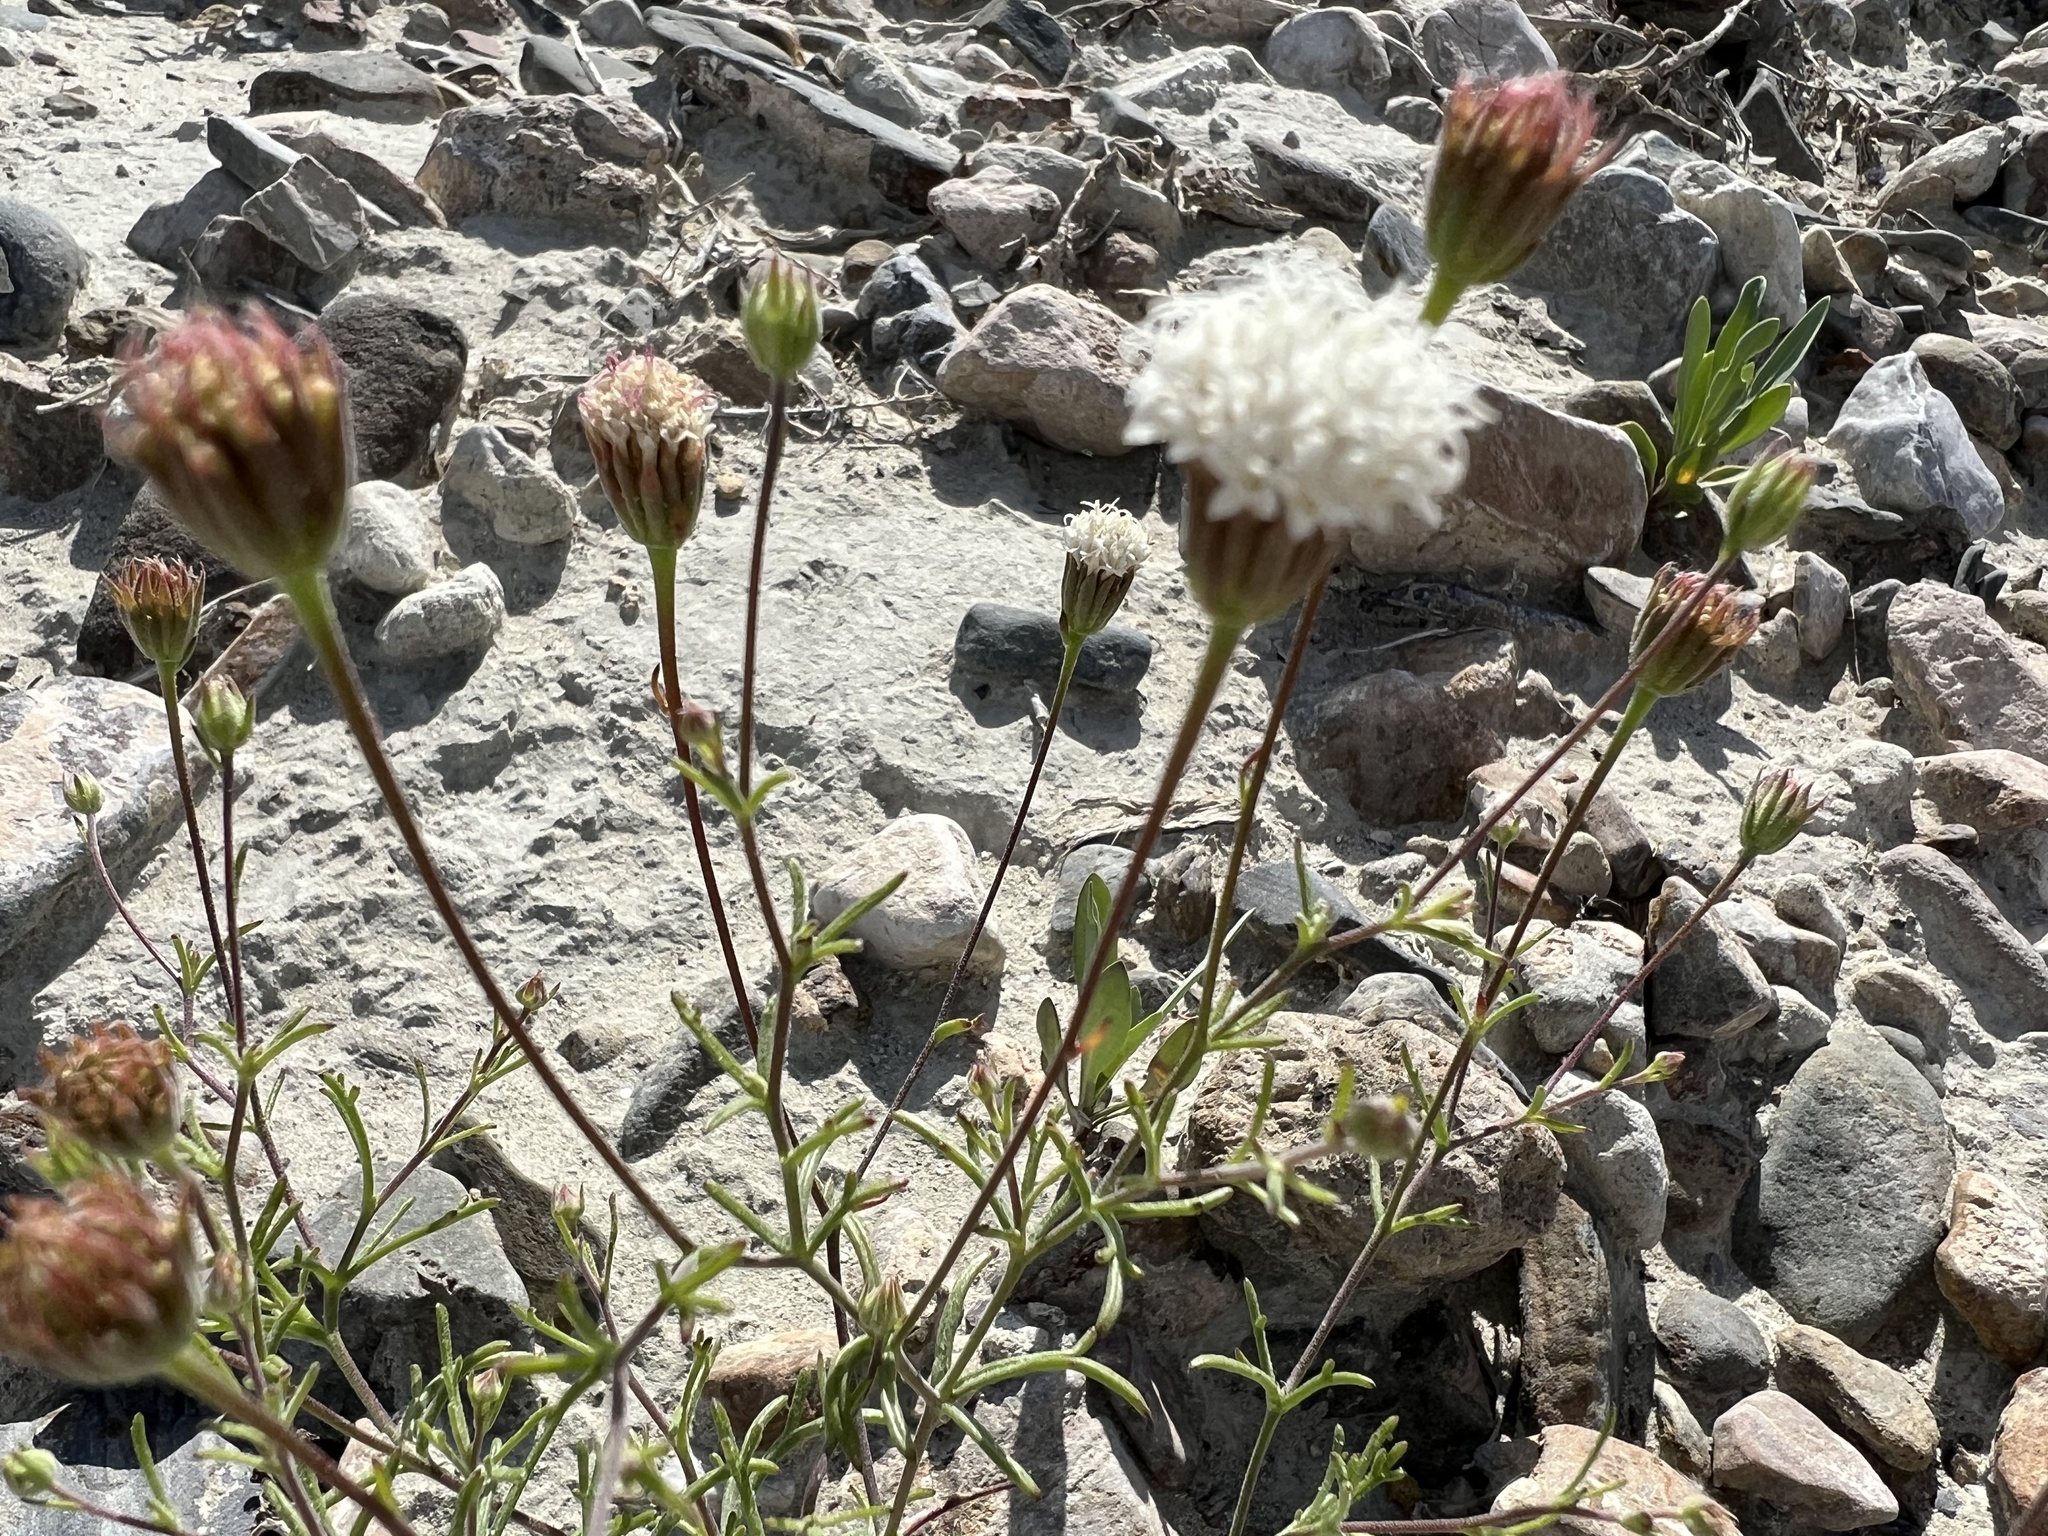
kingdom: Plantae
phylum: Tracheophyta
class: Magnoliopsida
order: Asterales
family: Asteraceae
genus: Chaenactis
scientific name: Chaenactis carphoclinia
